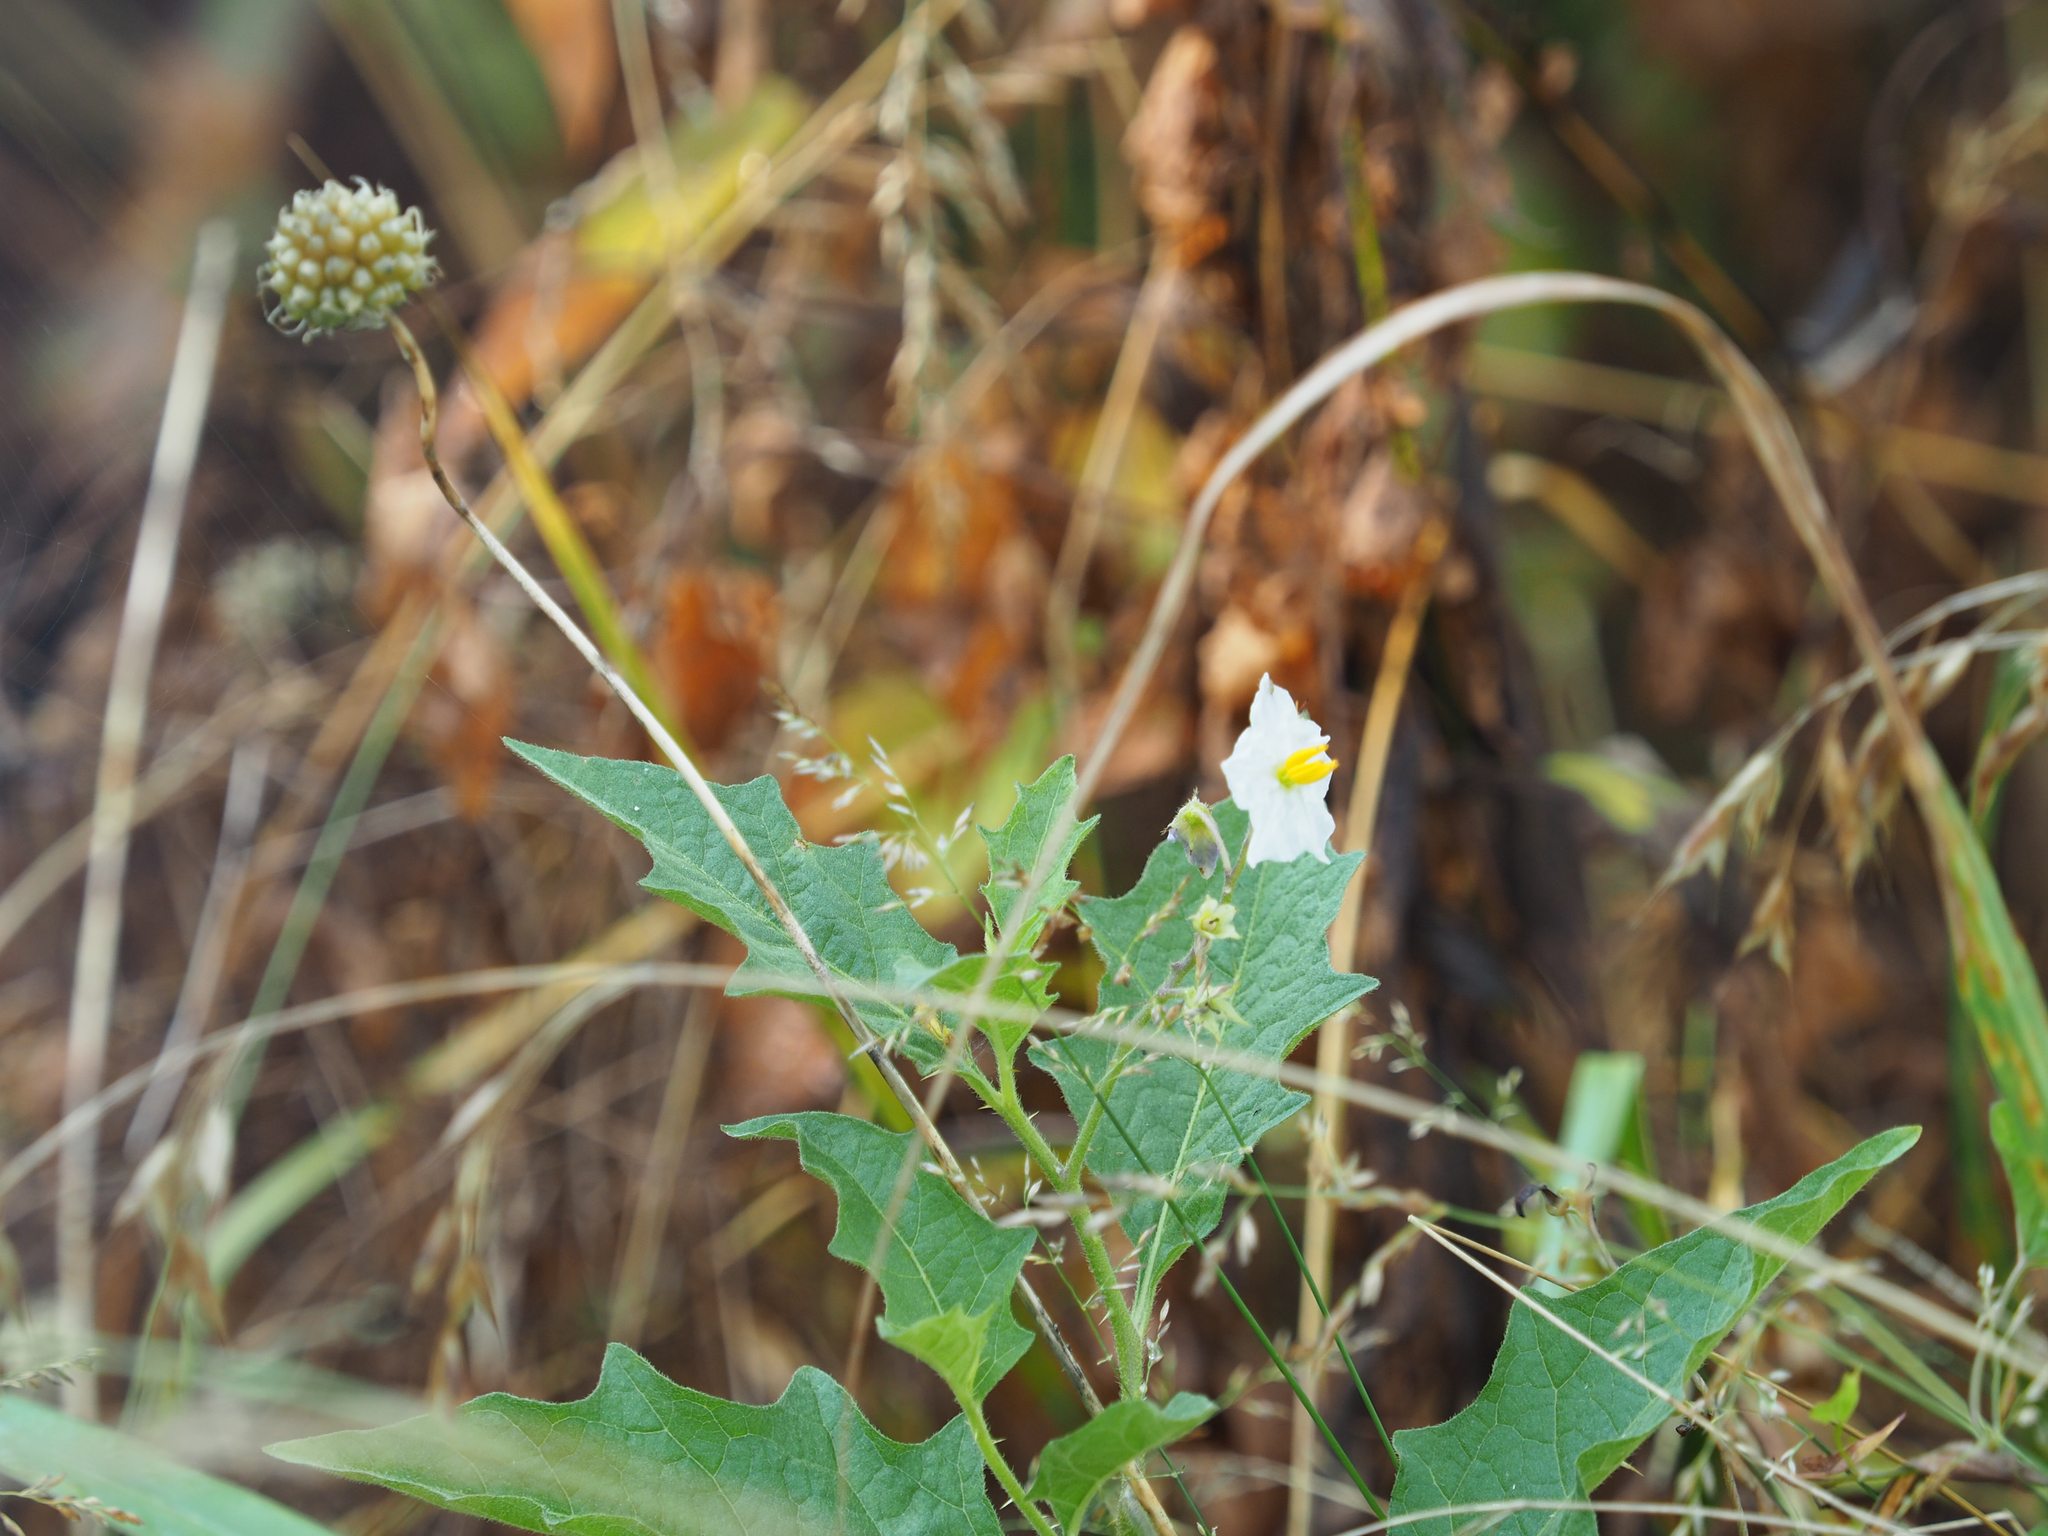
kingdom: Plantae
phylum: Tracheophyta
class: Magnoliopsida
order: Solanales
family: Solanaceae
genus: Solanum
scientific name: Solanum carolinense
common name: Horse-nettle
